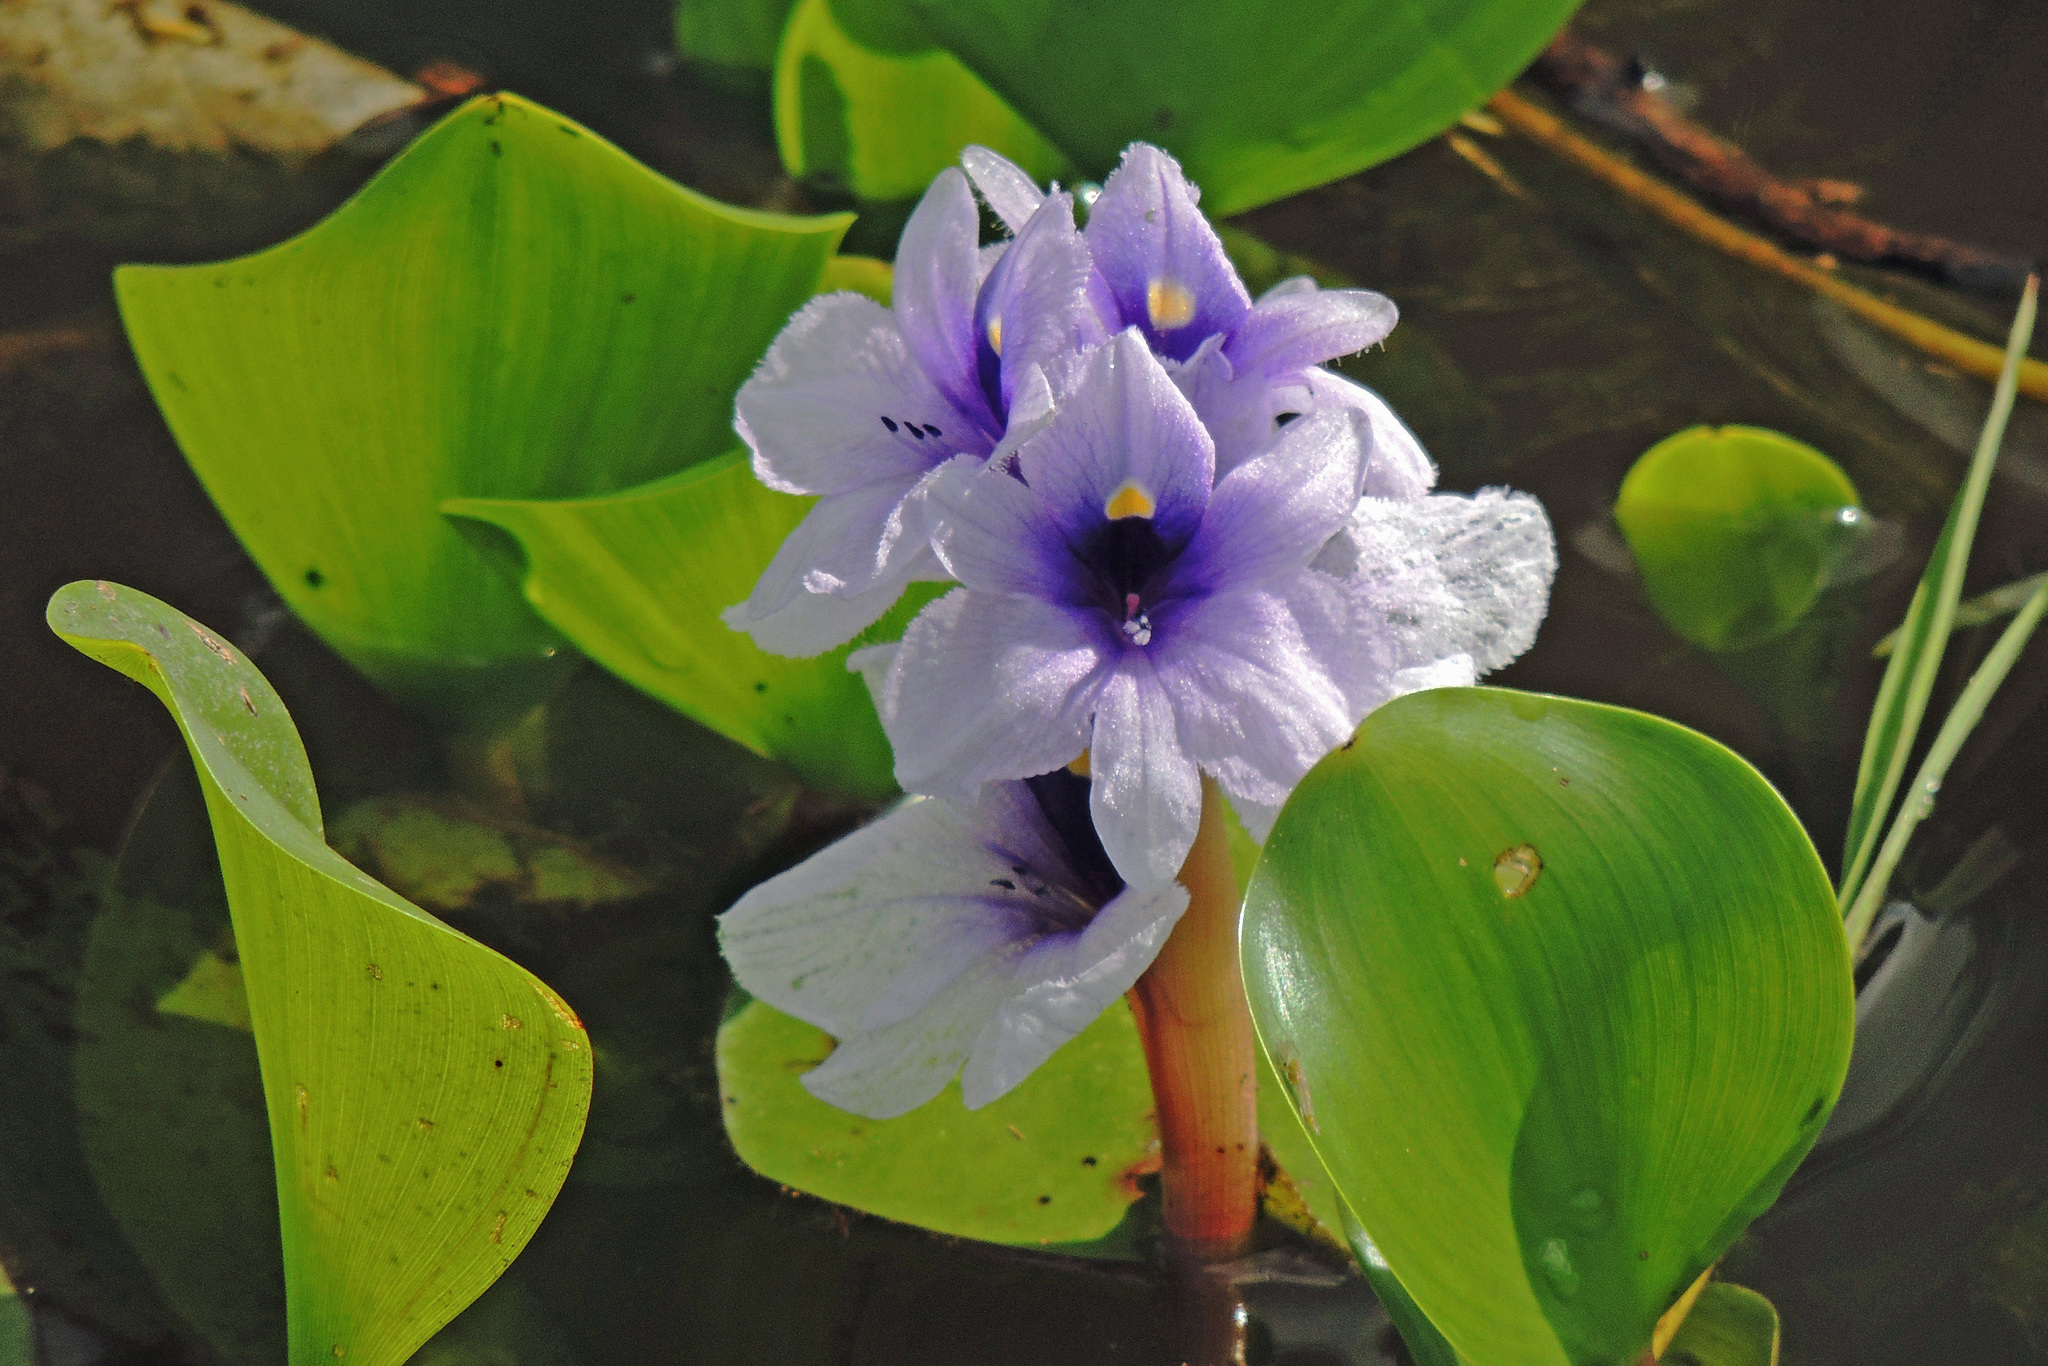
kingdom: Plantae
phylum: Tracheophyta
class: Liliopsida
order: Commelinales
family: Pontederiaceae
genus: Pontederia
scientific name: Pontederia azurea
